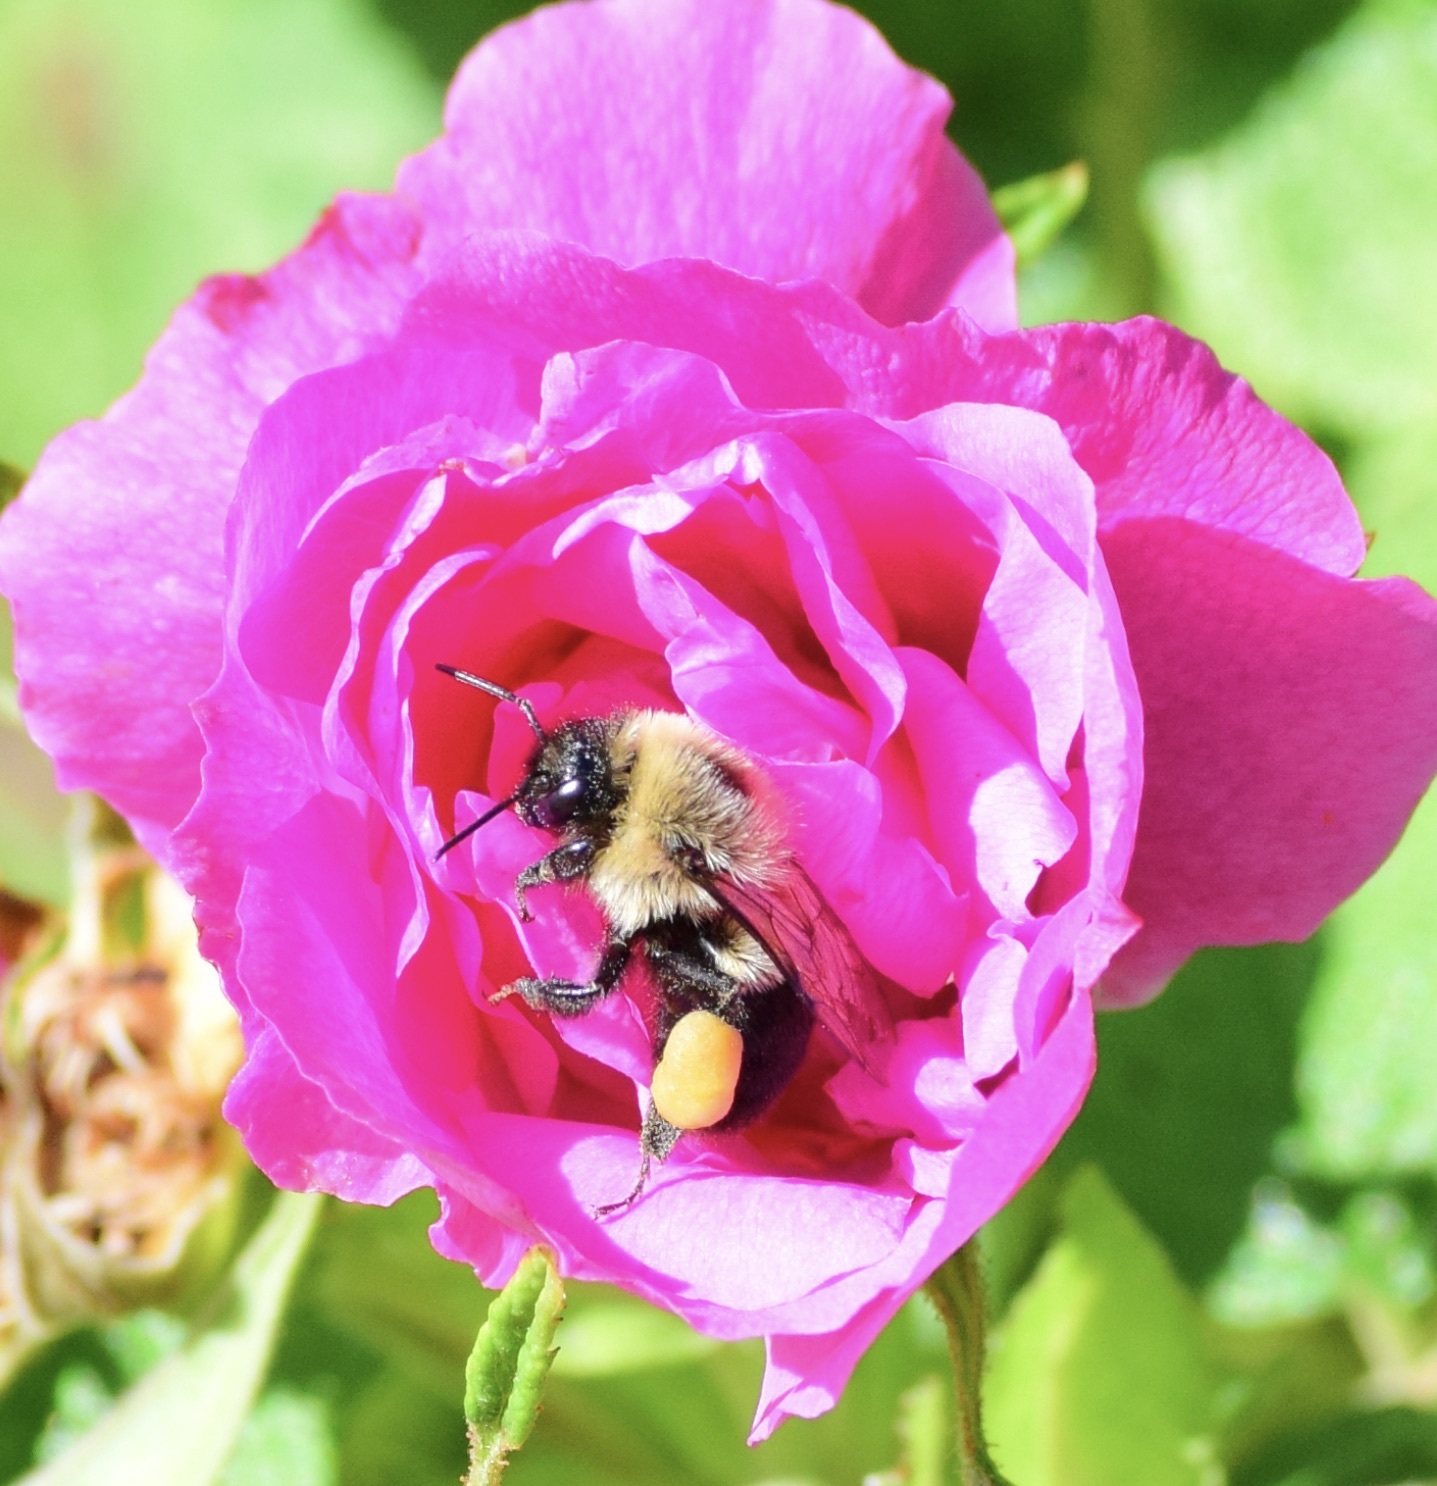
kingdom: Animalia
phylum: Arthropoda
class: Insecta
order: Hymenoptera
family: Apidae
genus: Bombus
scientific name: Bombus impatiens
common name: Common eastern bumble bee
